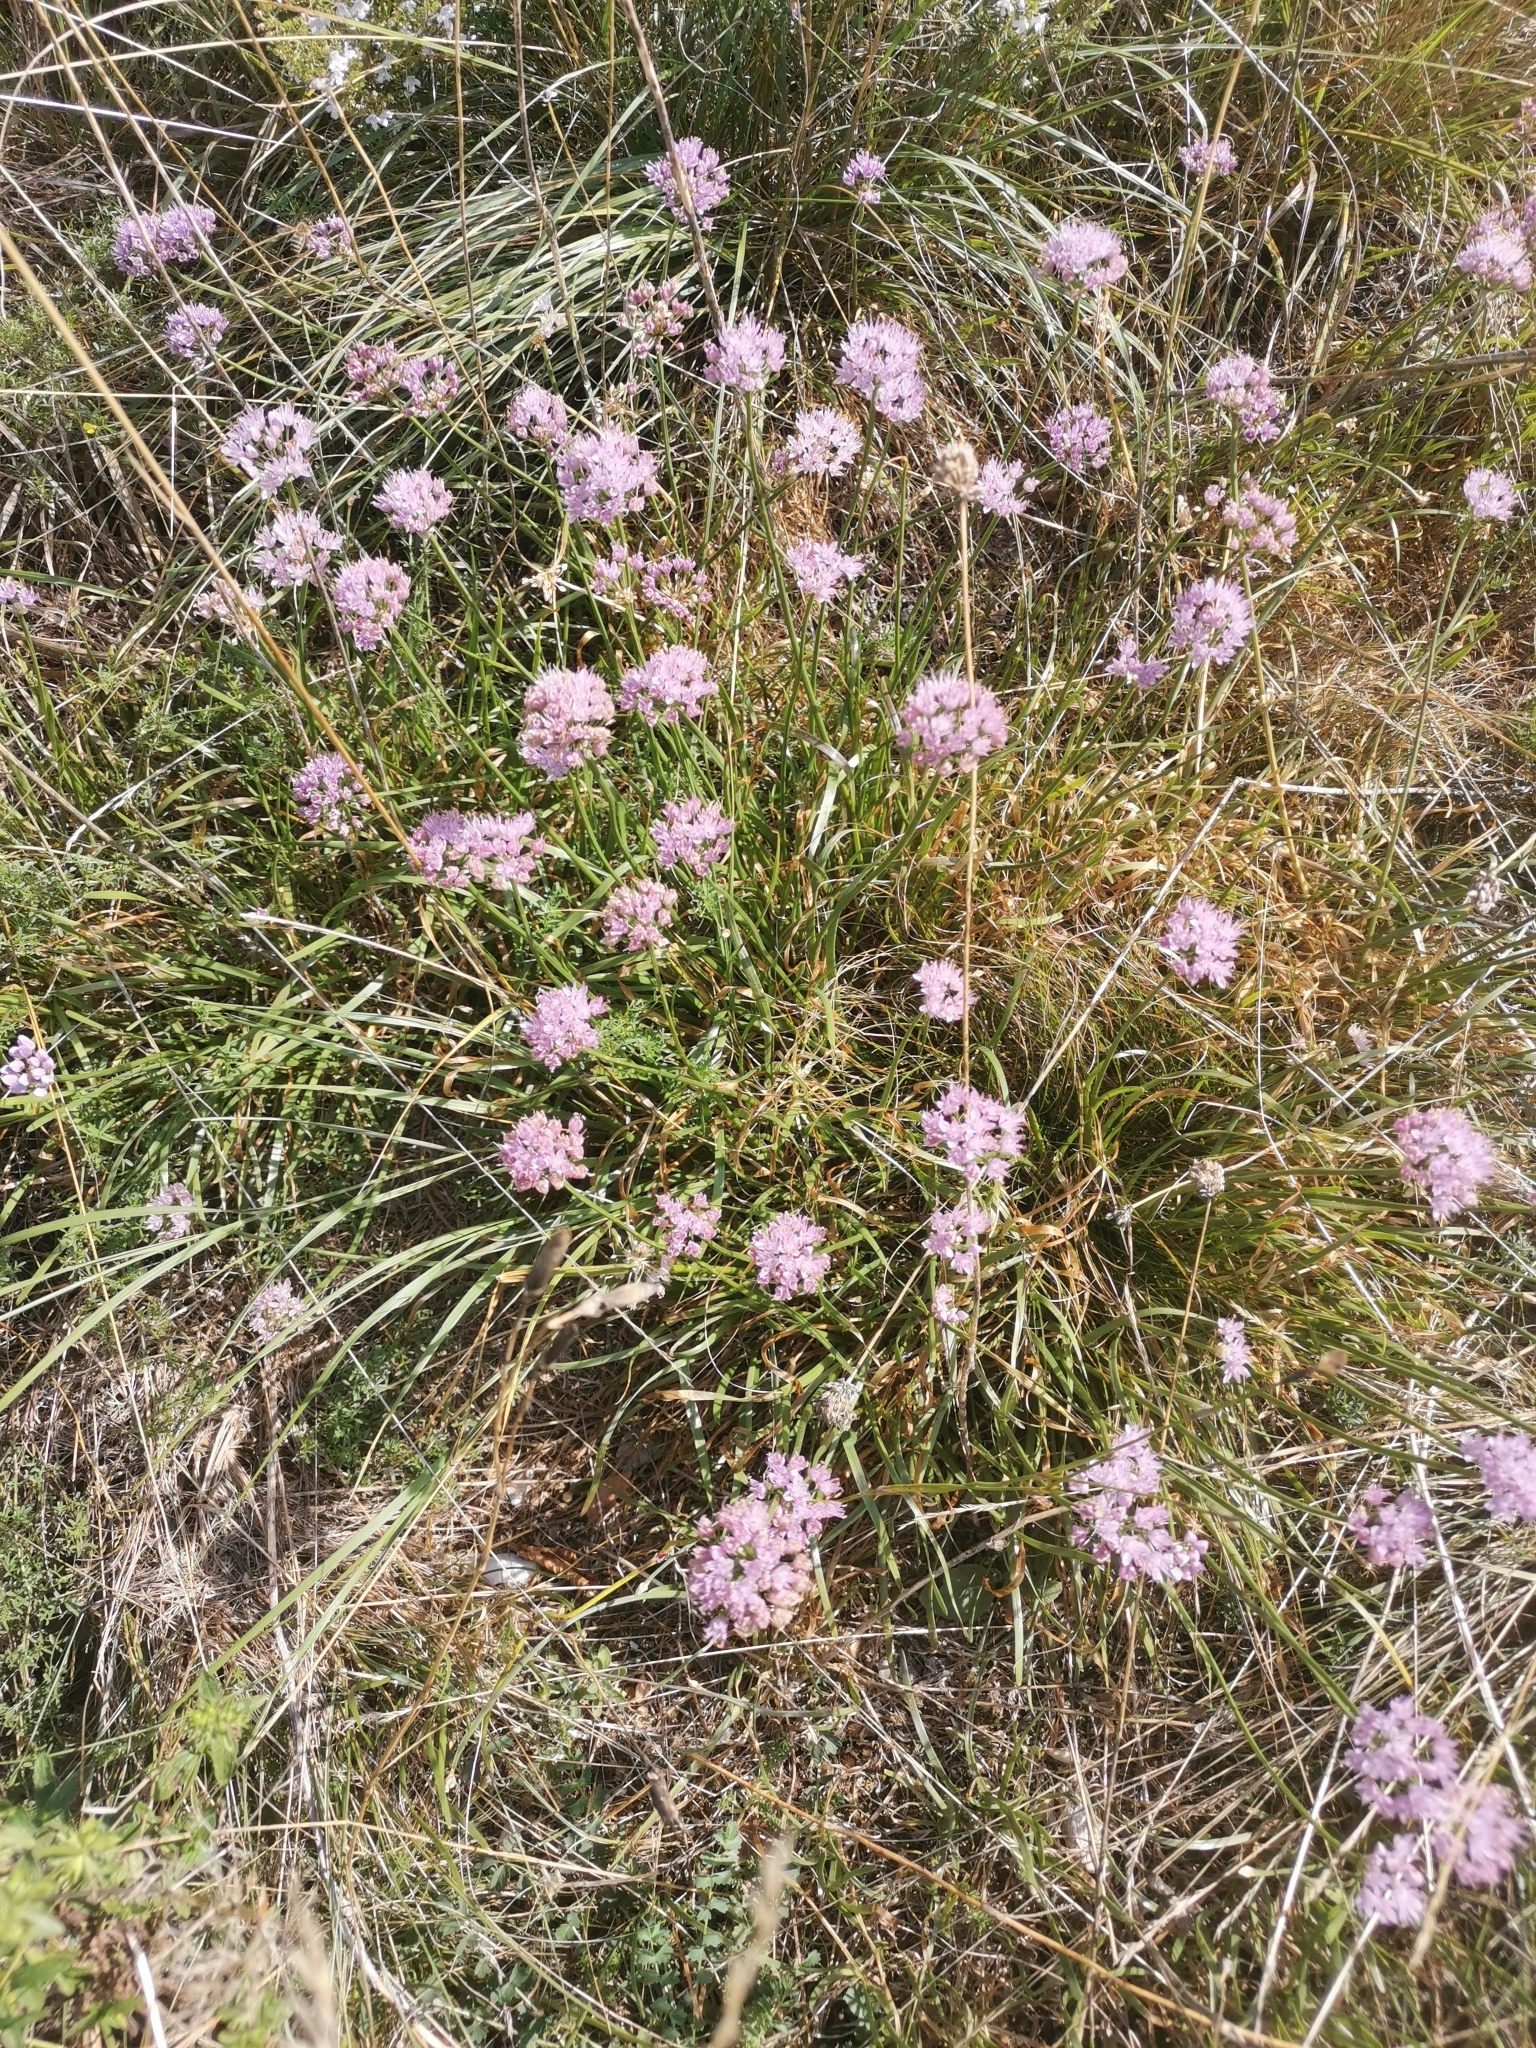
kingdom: Plantae
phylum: Tracheophyta
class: Liliopsida
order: Asparagales
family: Amaryllidaceae
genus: Allium
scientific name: Allium lusitanicum
